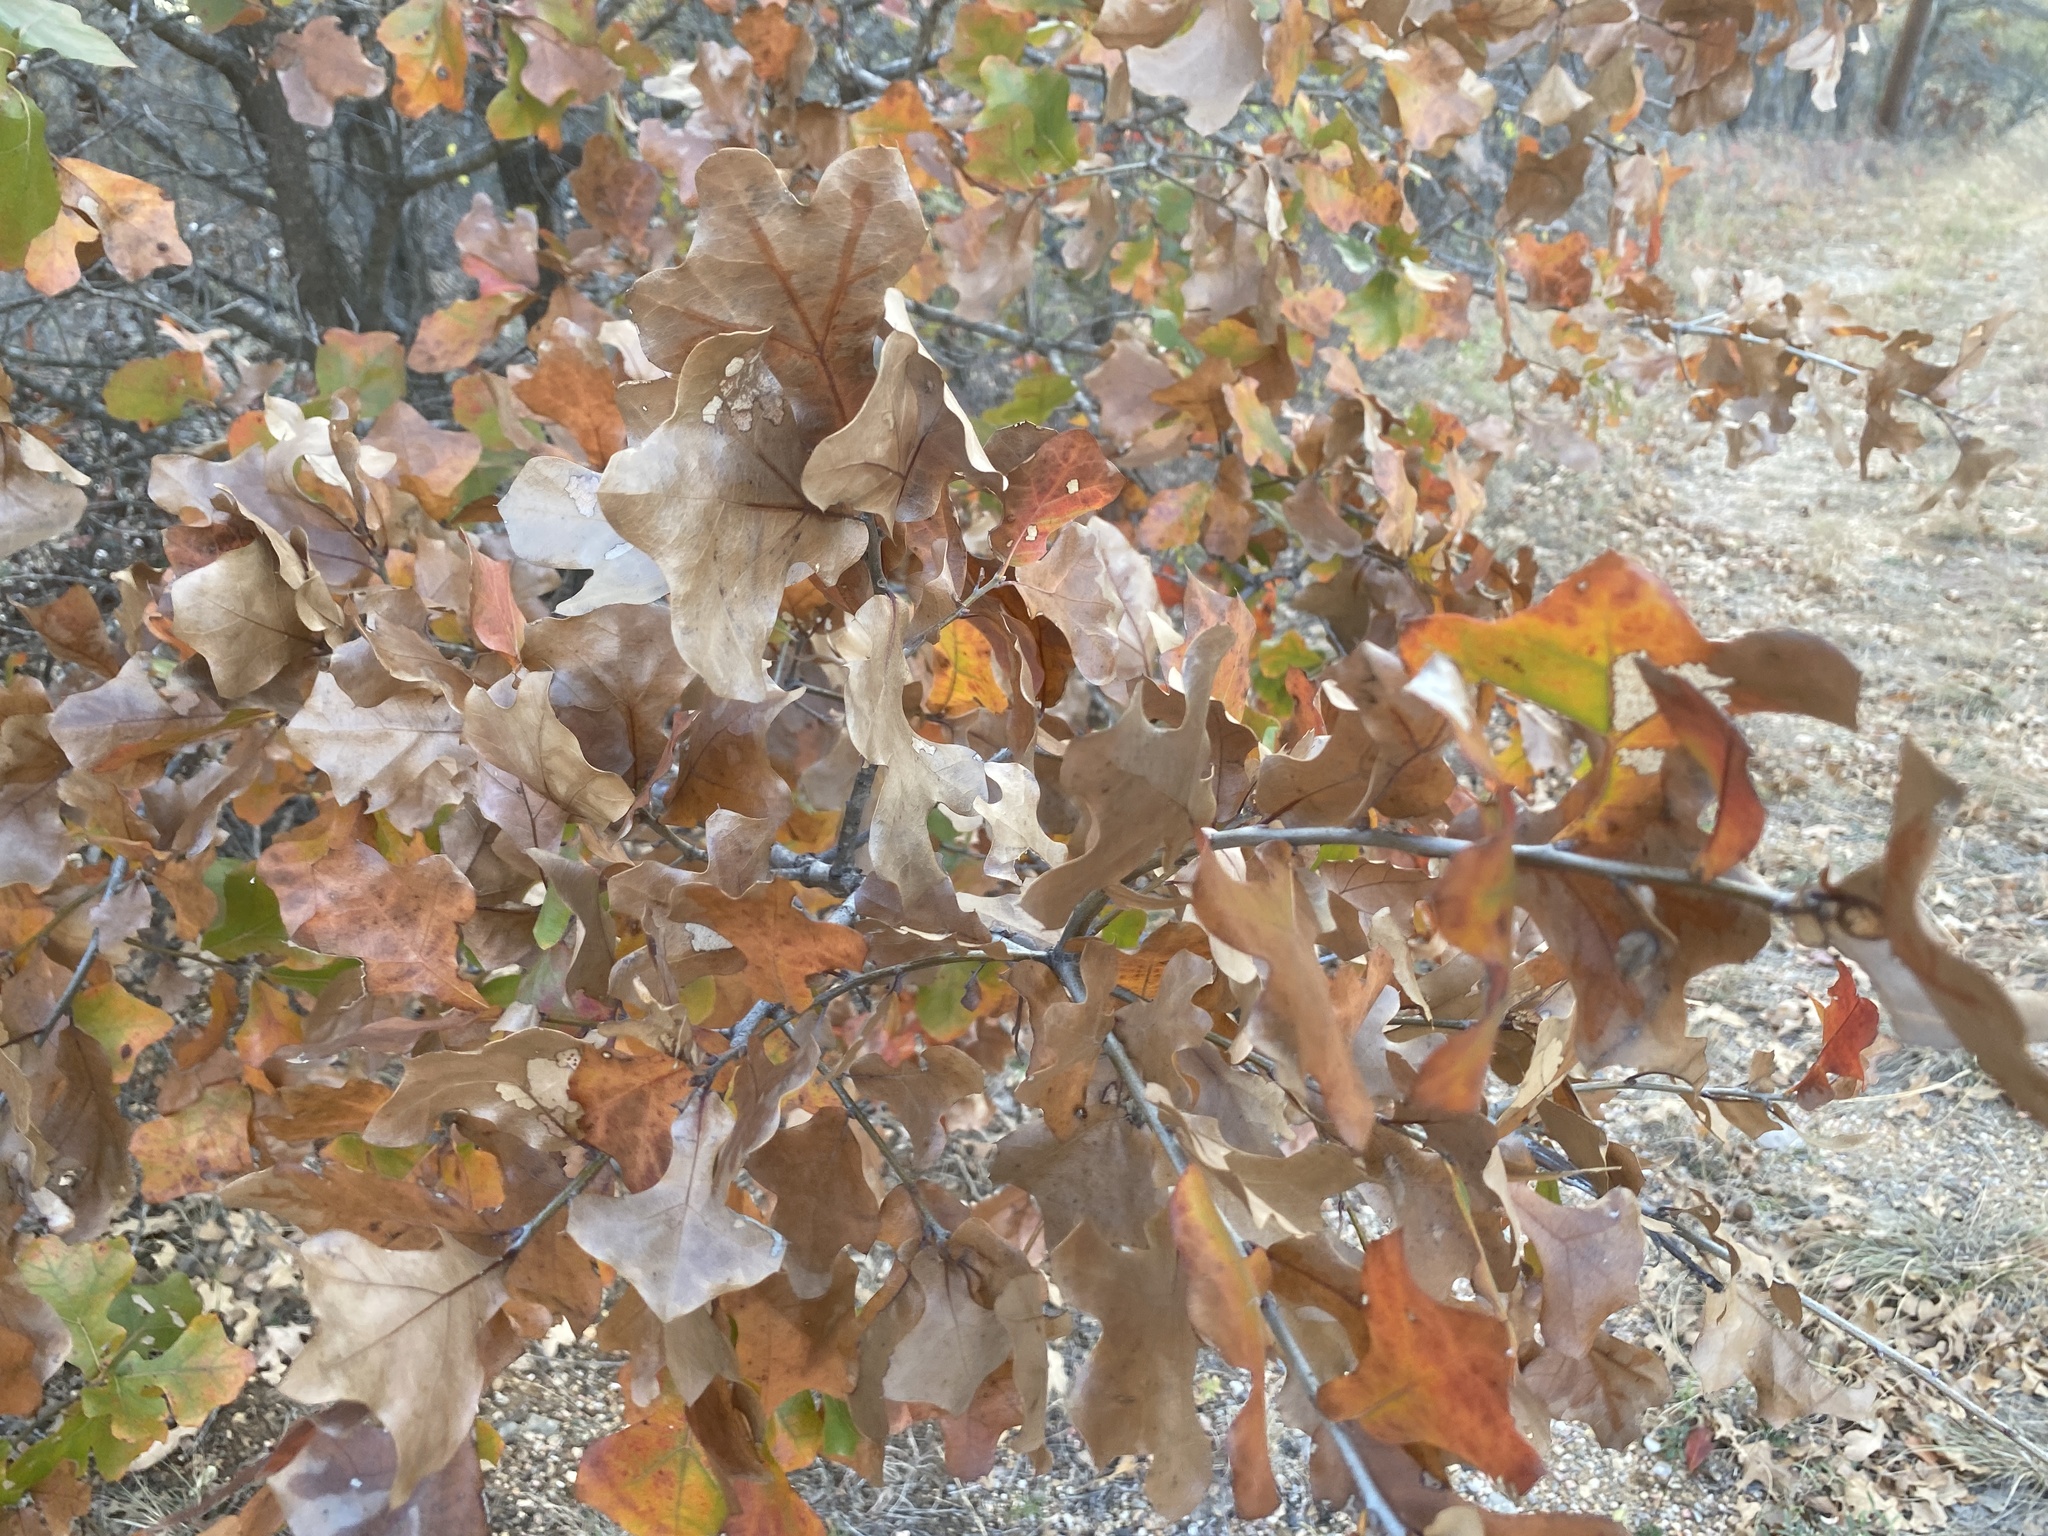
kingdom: Plantae
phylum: Tracheophyta
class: Magnoliopsida
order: Fagales
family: Fagaceae
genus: Quercus
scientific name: Quercus marilandica
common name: Blackjack oak
